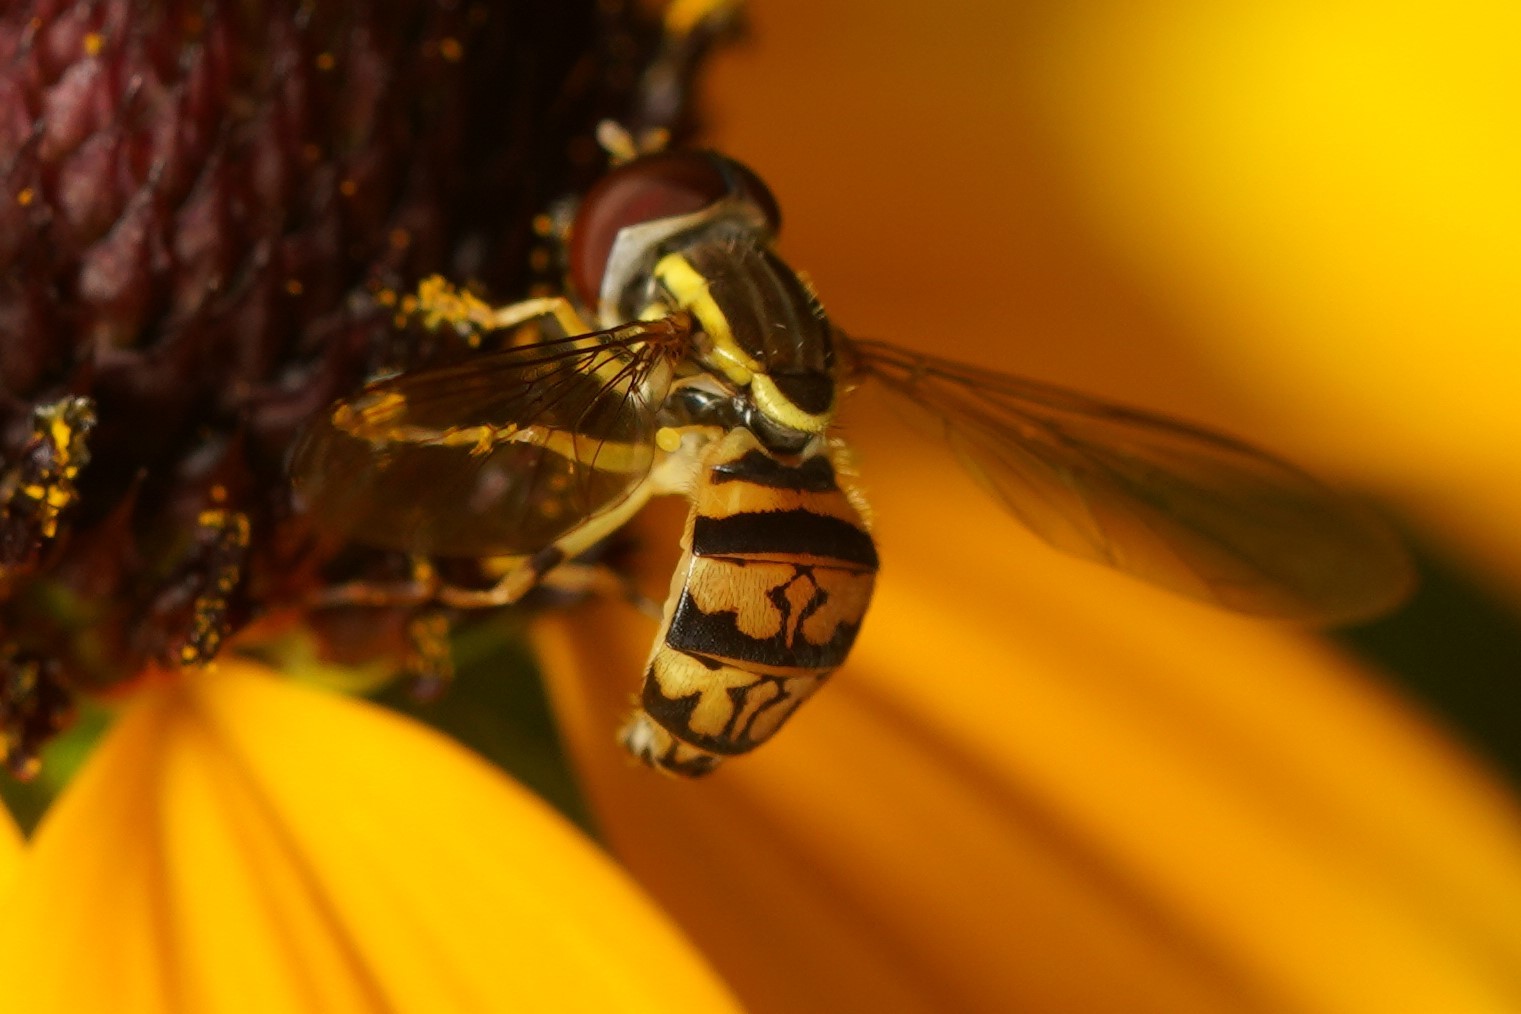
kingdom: Animalia
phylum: Arthropoda
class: Insecta
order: Diptera
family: Syrphidae
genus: Toxomerus
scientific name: Toxomerus geminatus
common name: Eastern calligrapher
